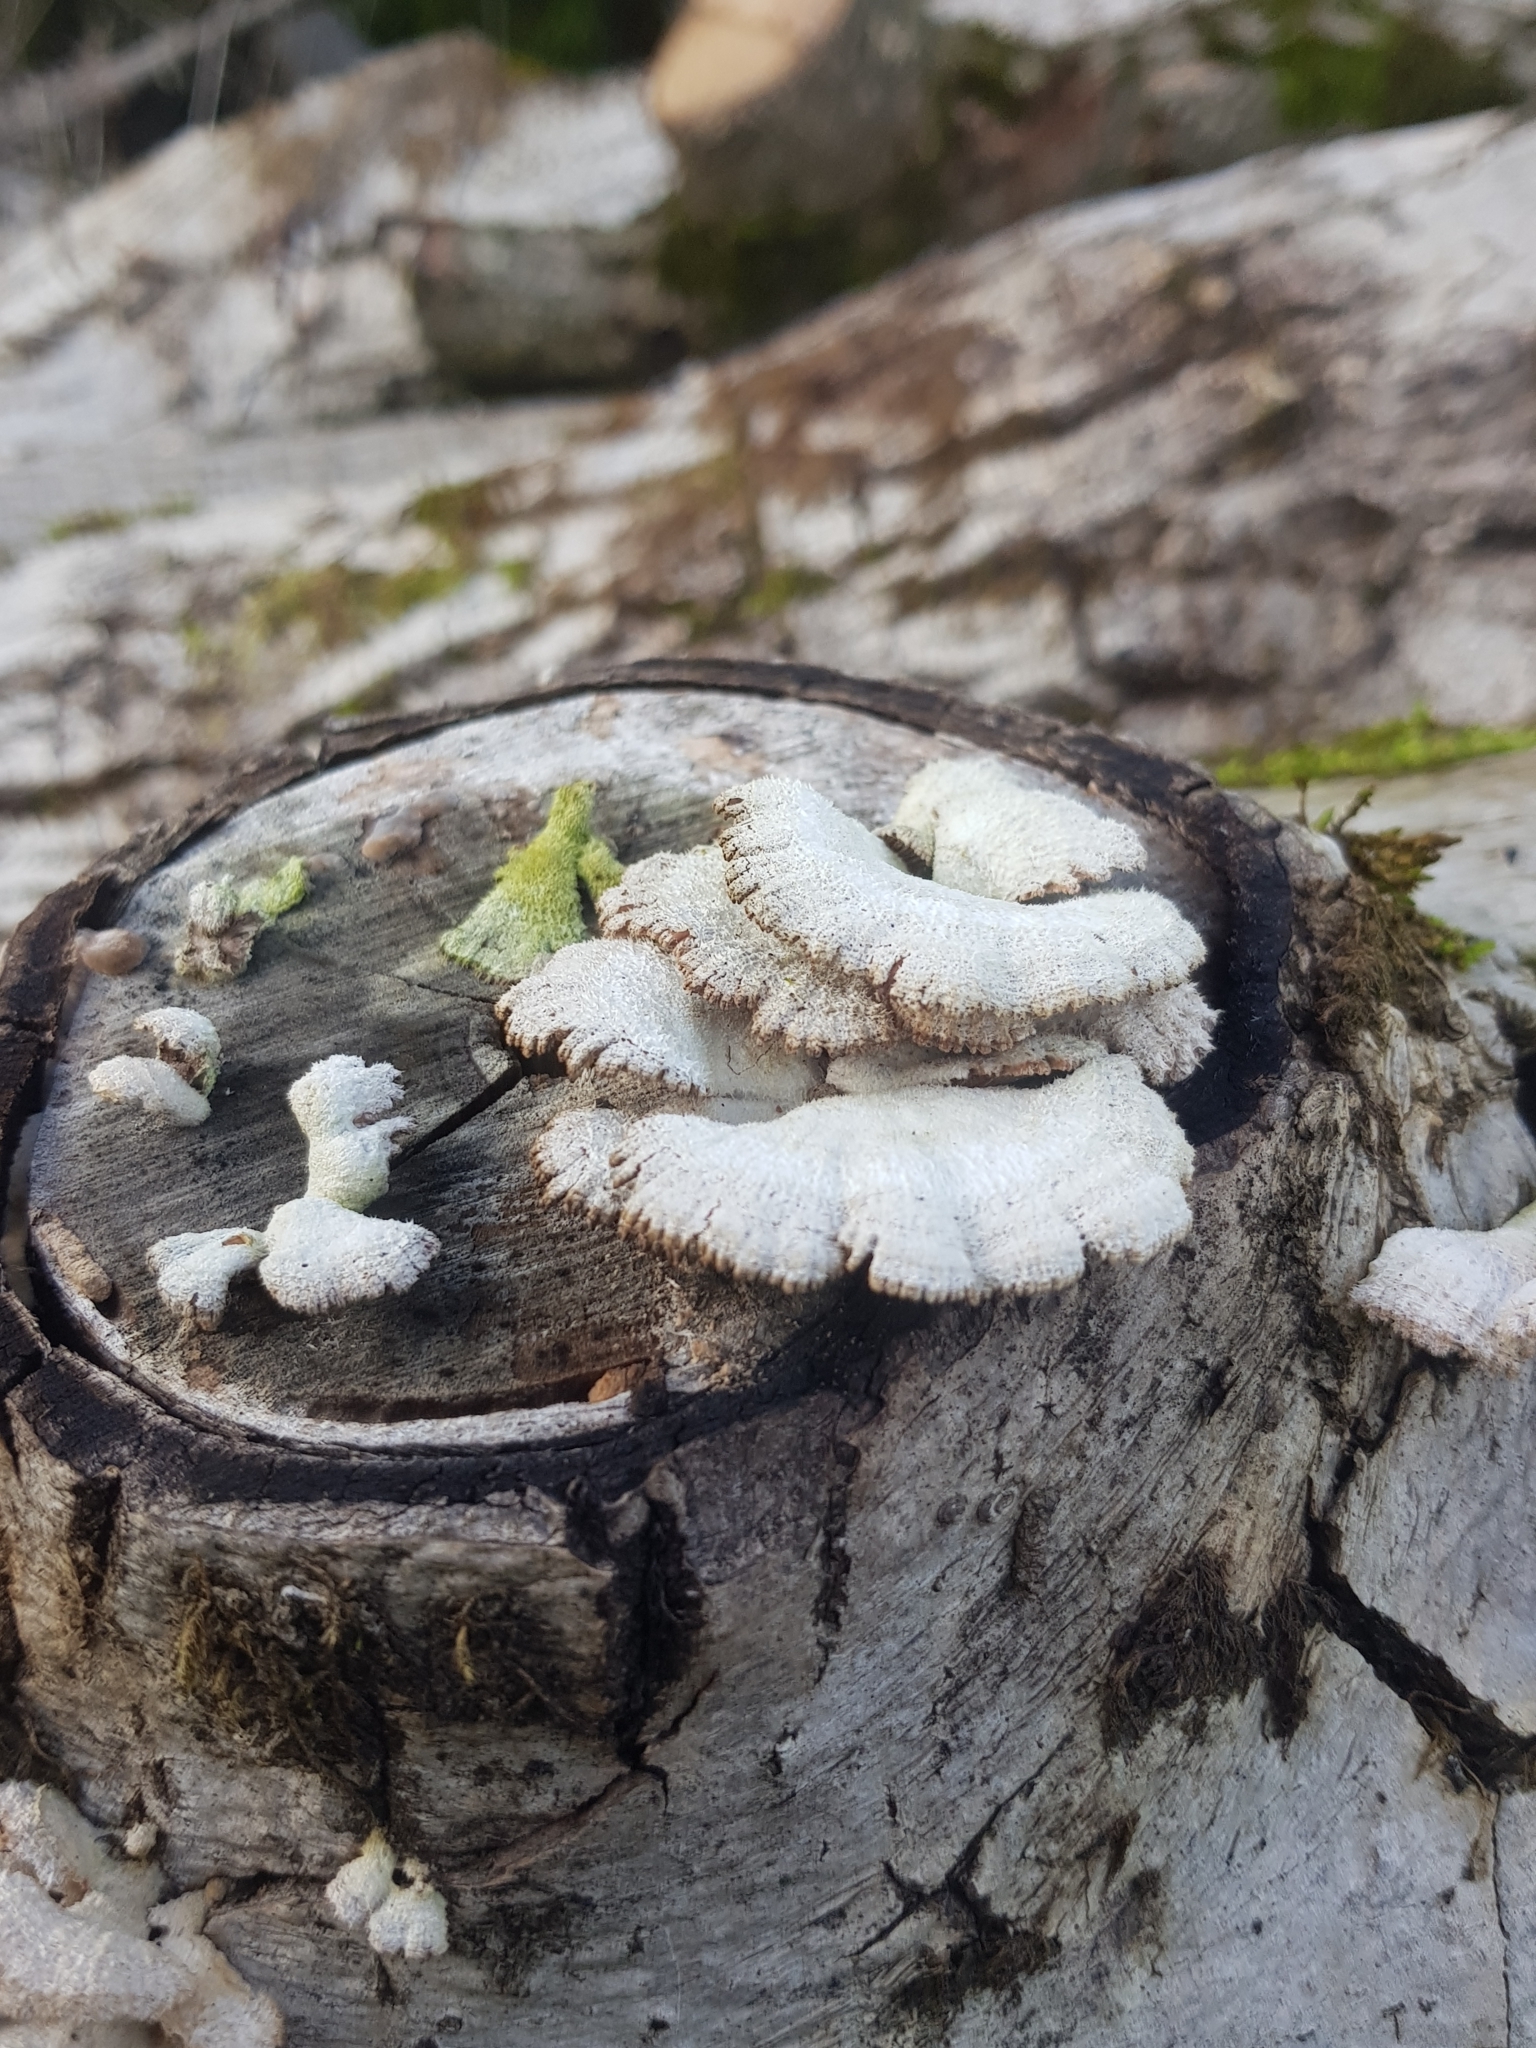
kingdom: Fungi
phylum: Basidiomycota
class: Agaricomycetes
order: Agaricales
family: Schizophyllaceae
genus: Schizophyllum
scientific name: Schizophyllum commune
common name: Common porecrust
